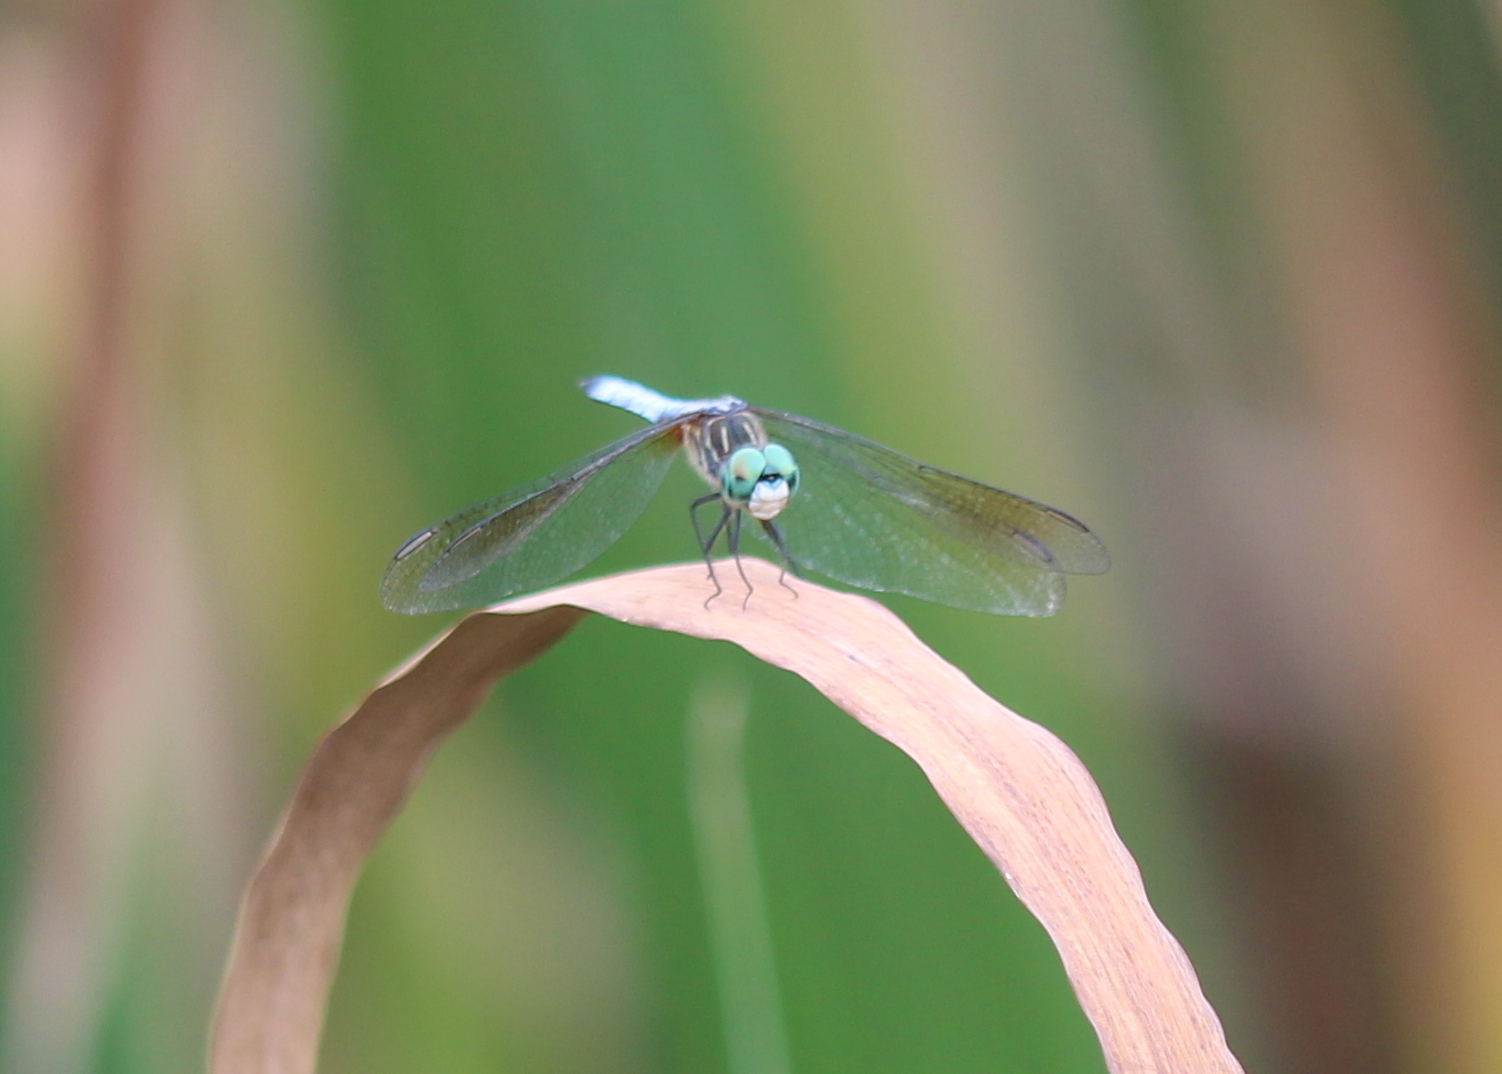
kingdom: Animalia
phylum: Arthropoda
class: Insecta
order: Odonata
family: Libellulidae
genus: Pachydiplax
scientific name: Pachydiplax longipennis
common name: Blue dasher
